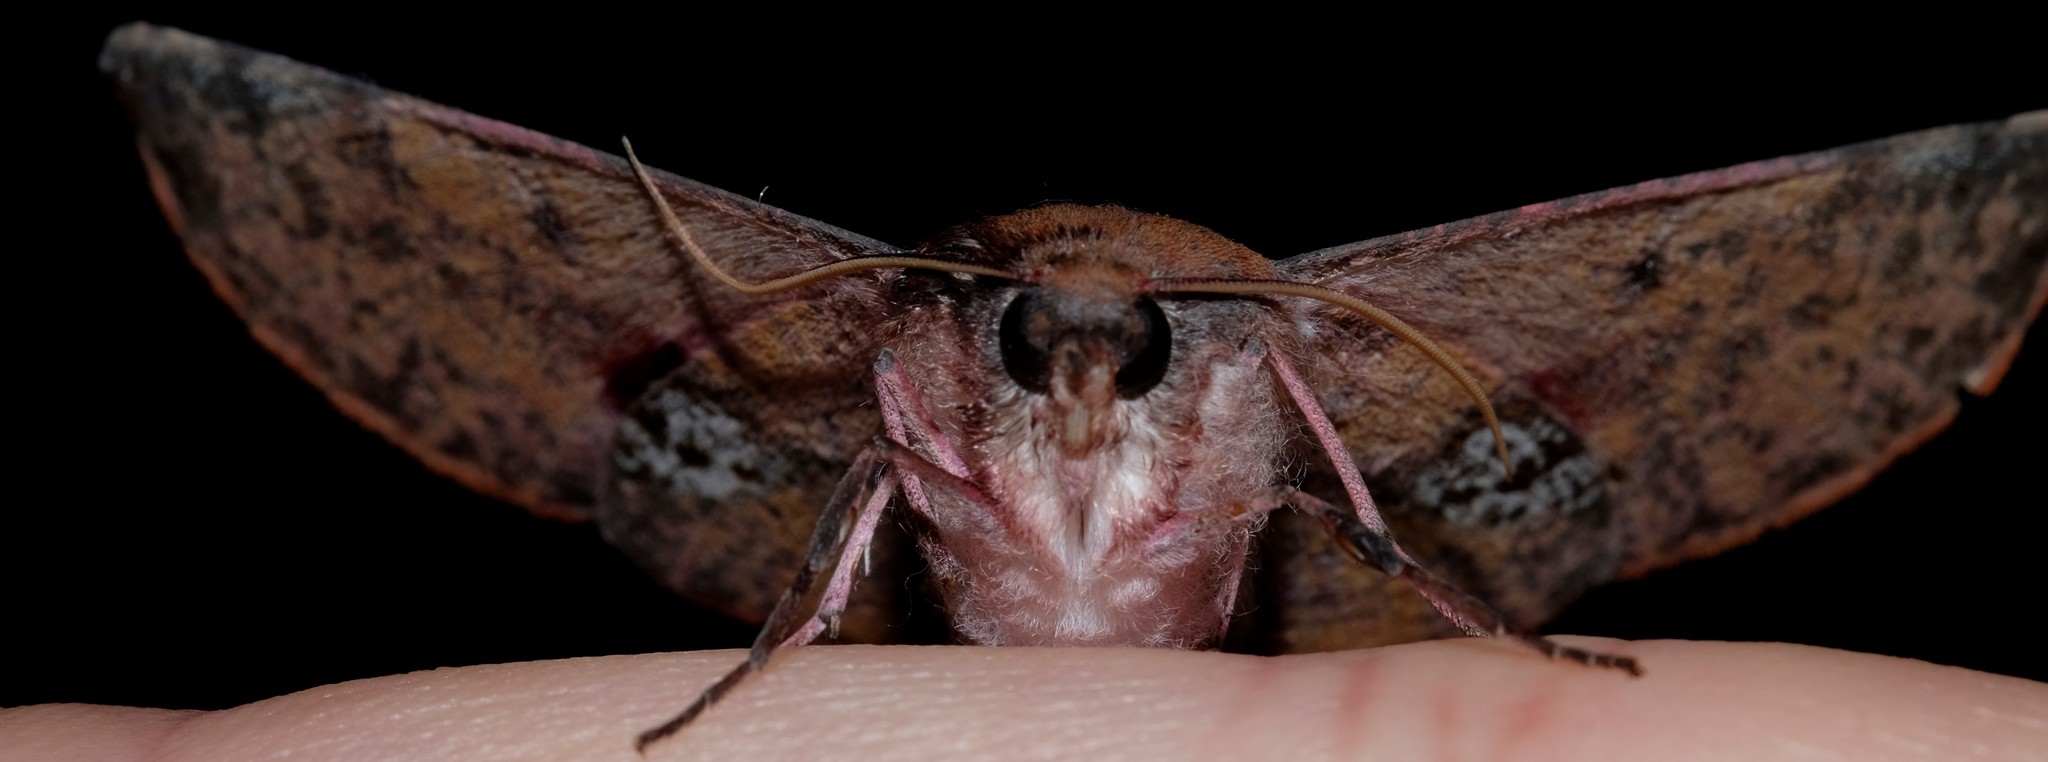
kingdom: Animalia
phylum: Arthropoda
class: Insecta
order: Lepidoptera
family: Geometridae
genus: Oenochroma
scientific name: Oenochroma vinaria
